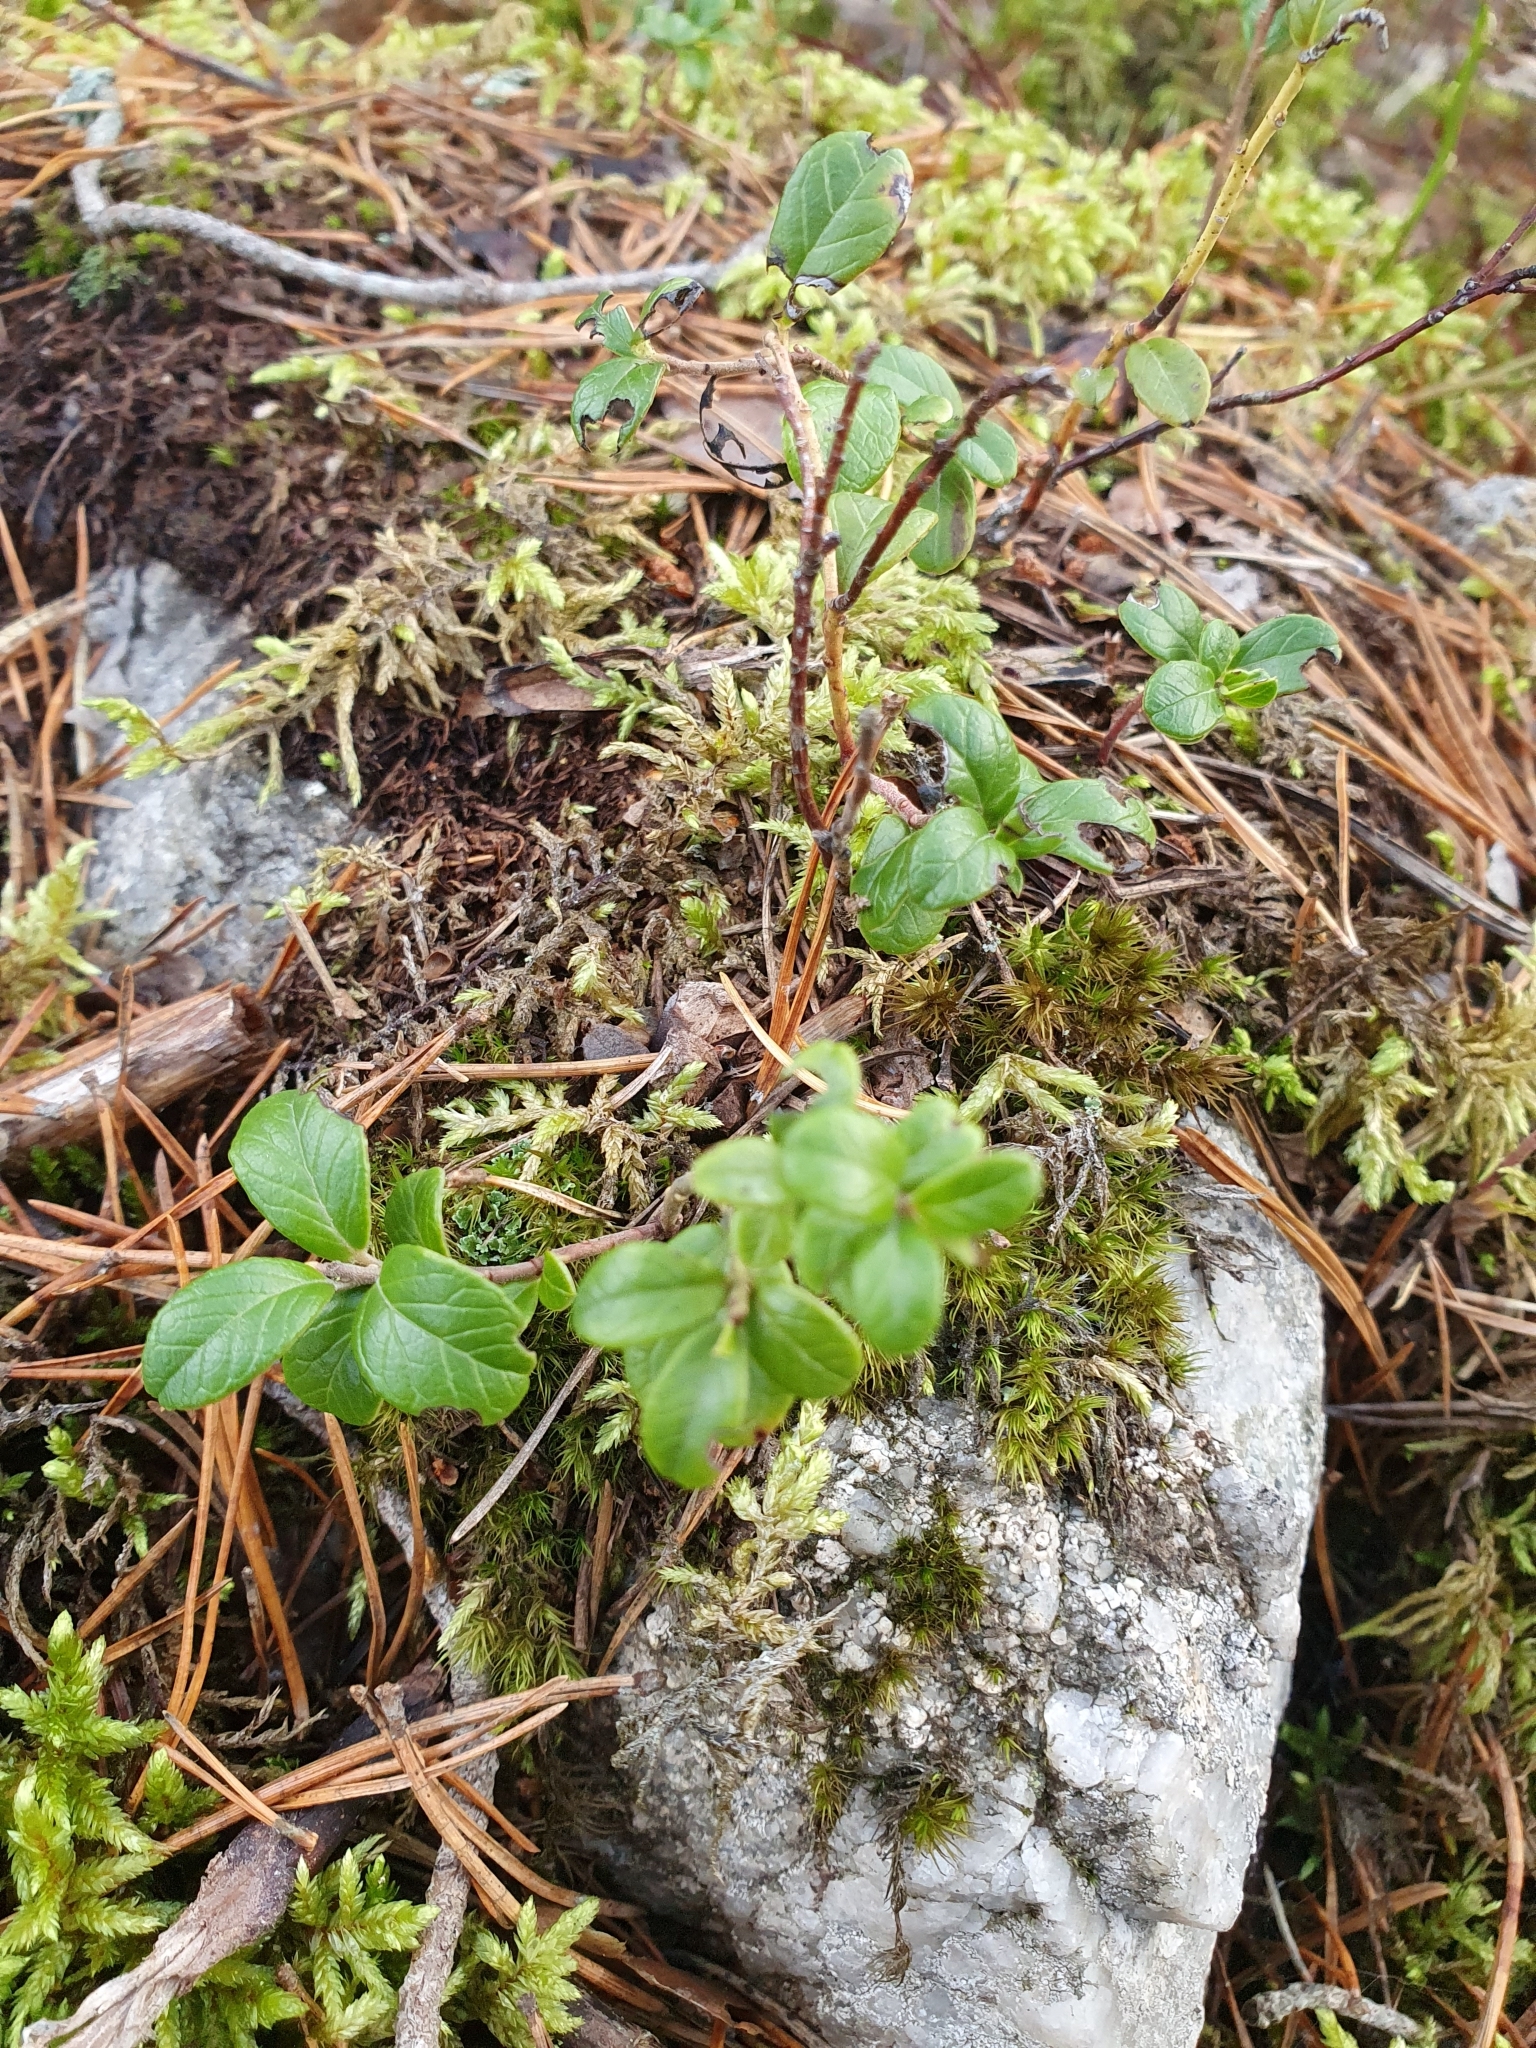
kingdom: Plantae
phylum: Tracheophyta
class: Magnoliopsida
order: Ericales
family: Ericaceae
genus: Vaccinium
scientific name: Vaccinium vitis-idaea
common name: Cowberry
